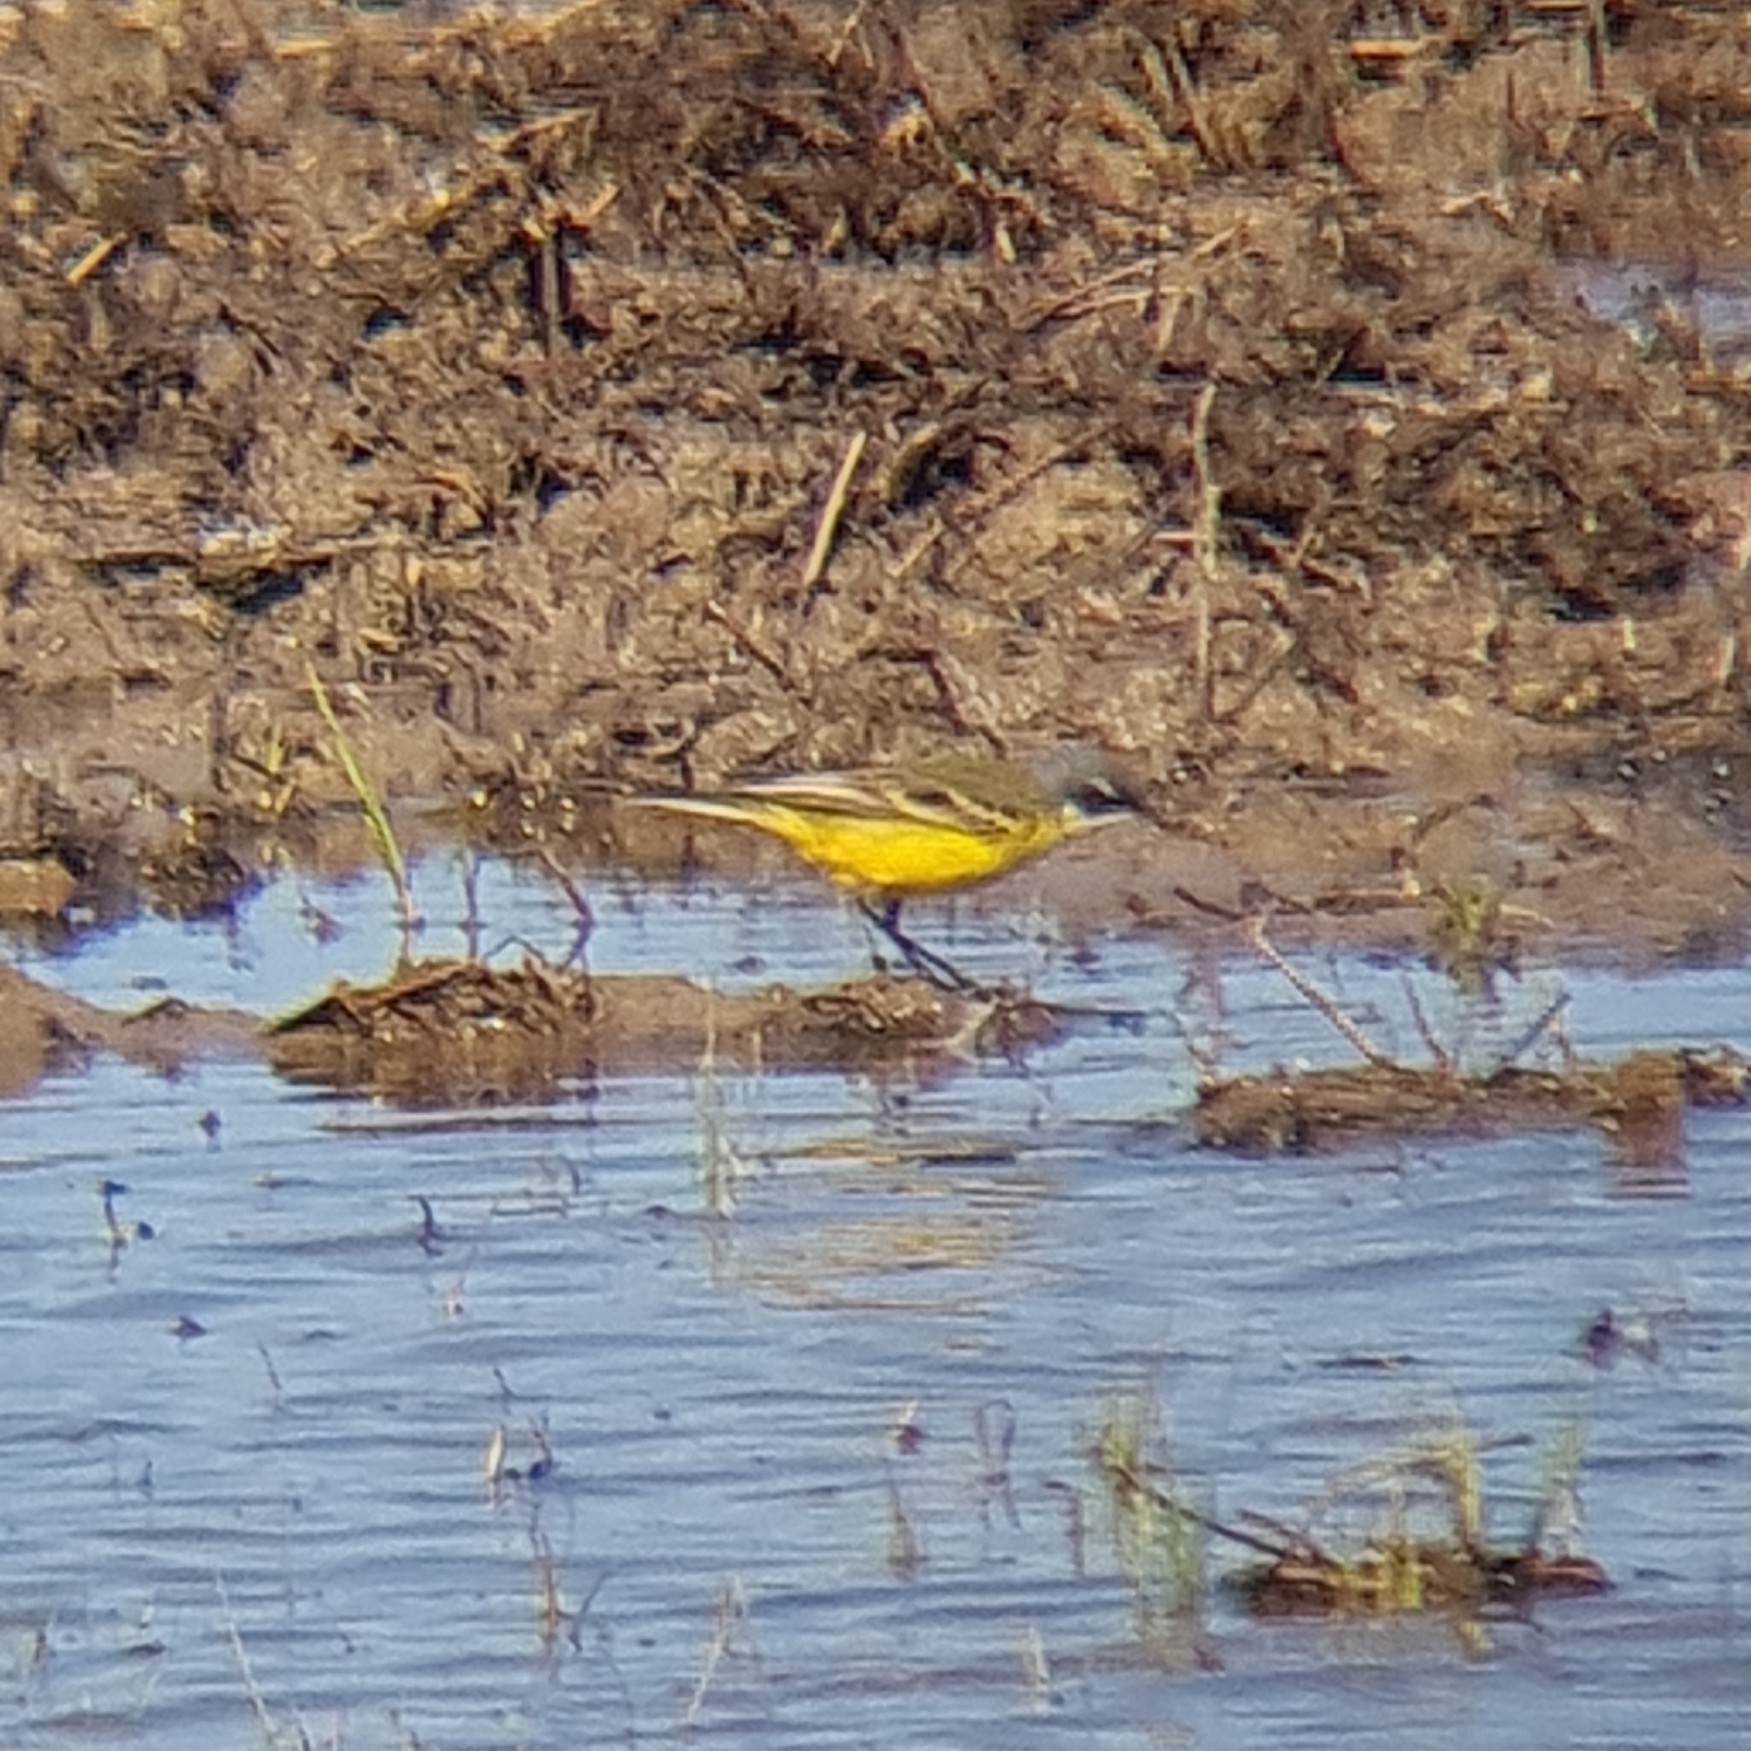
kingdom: Animalia
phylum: Chordata
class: Aves
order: Passeriformes
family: Motacillidae
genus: Motacilla
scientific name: Motacilla flava
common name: Western yellow wagtail
